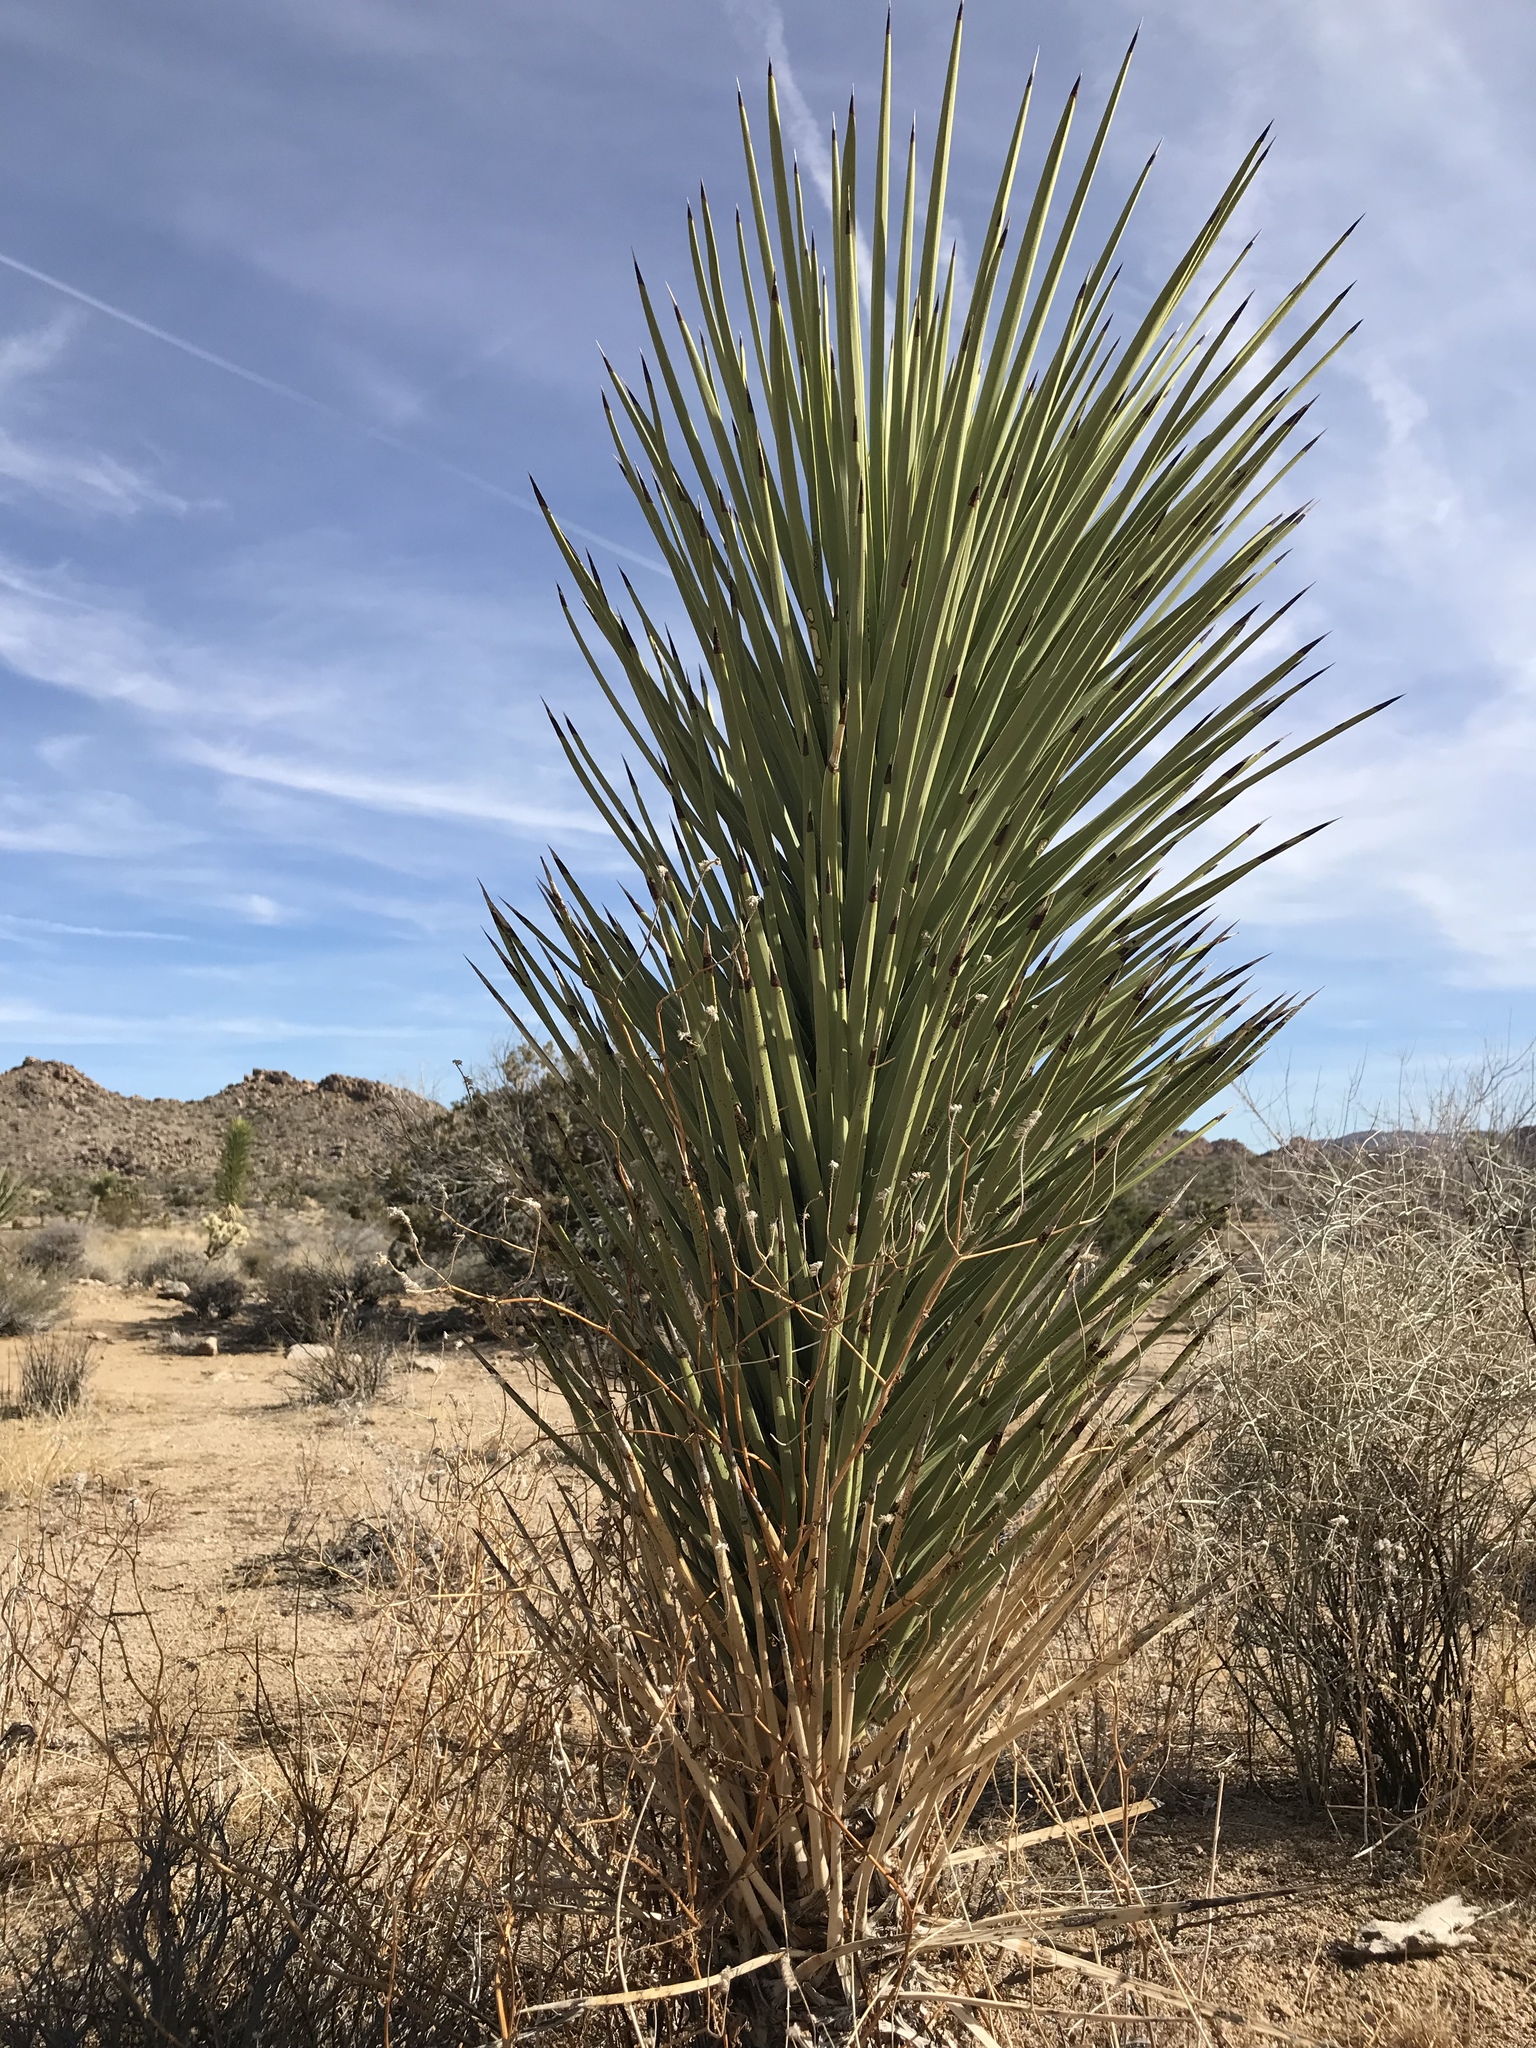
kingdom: Plantae
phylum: Tracheophyta
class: Liliopsida
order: Asparagales
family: Asparagaceae
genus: Yucca
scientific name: Yucca brevifolia
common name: Joshua tree
